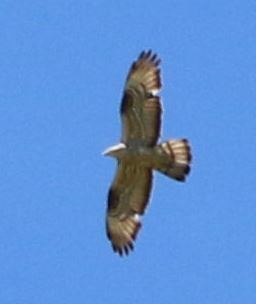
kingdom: Animalia
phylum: Chordata
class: Aves
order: Accipitriformes
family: Accipitridae
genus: Pernis
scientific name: Pernis apivorus
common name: European honey buzzard
